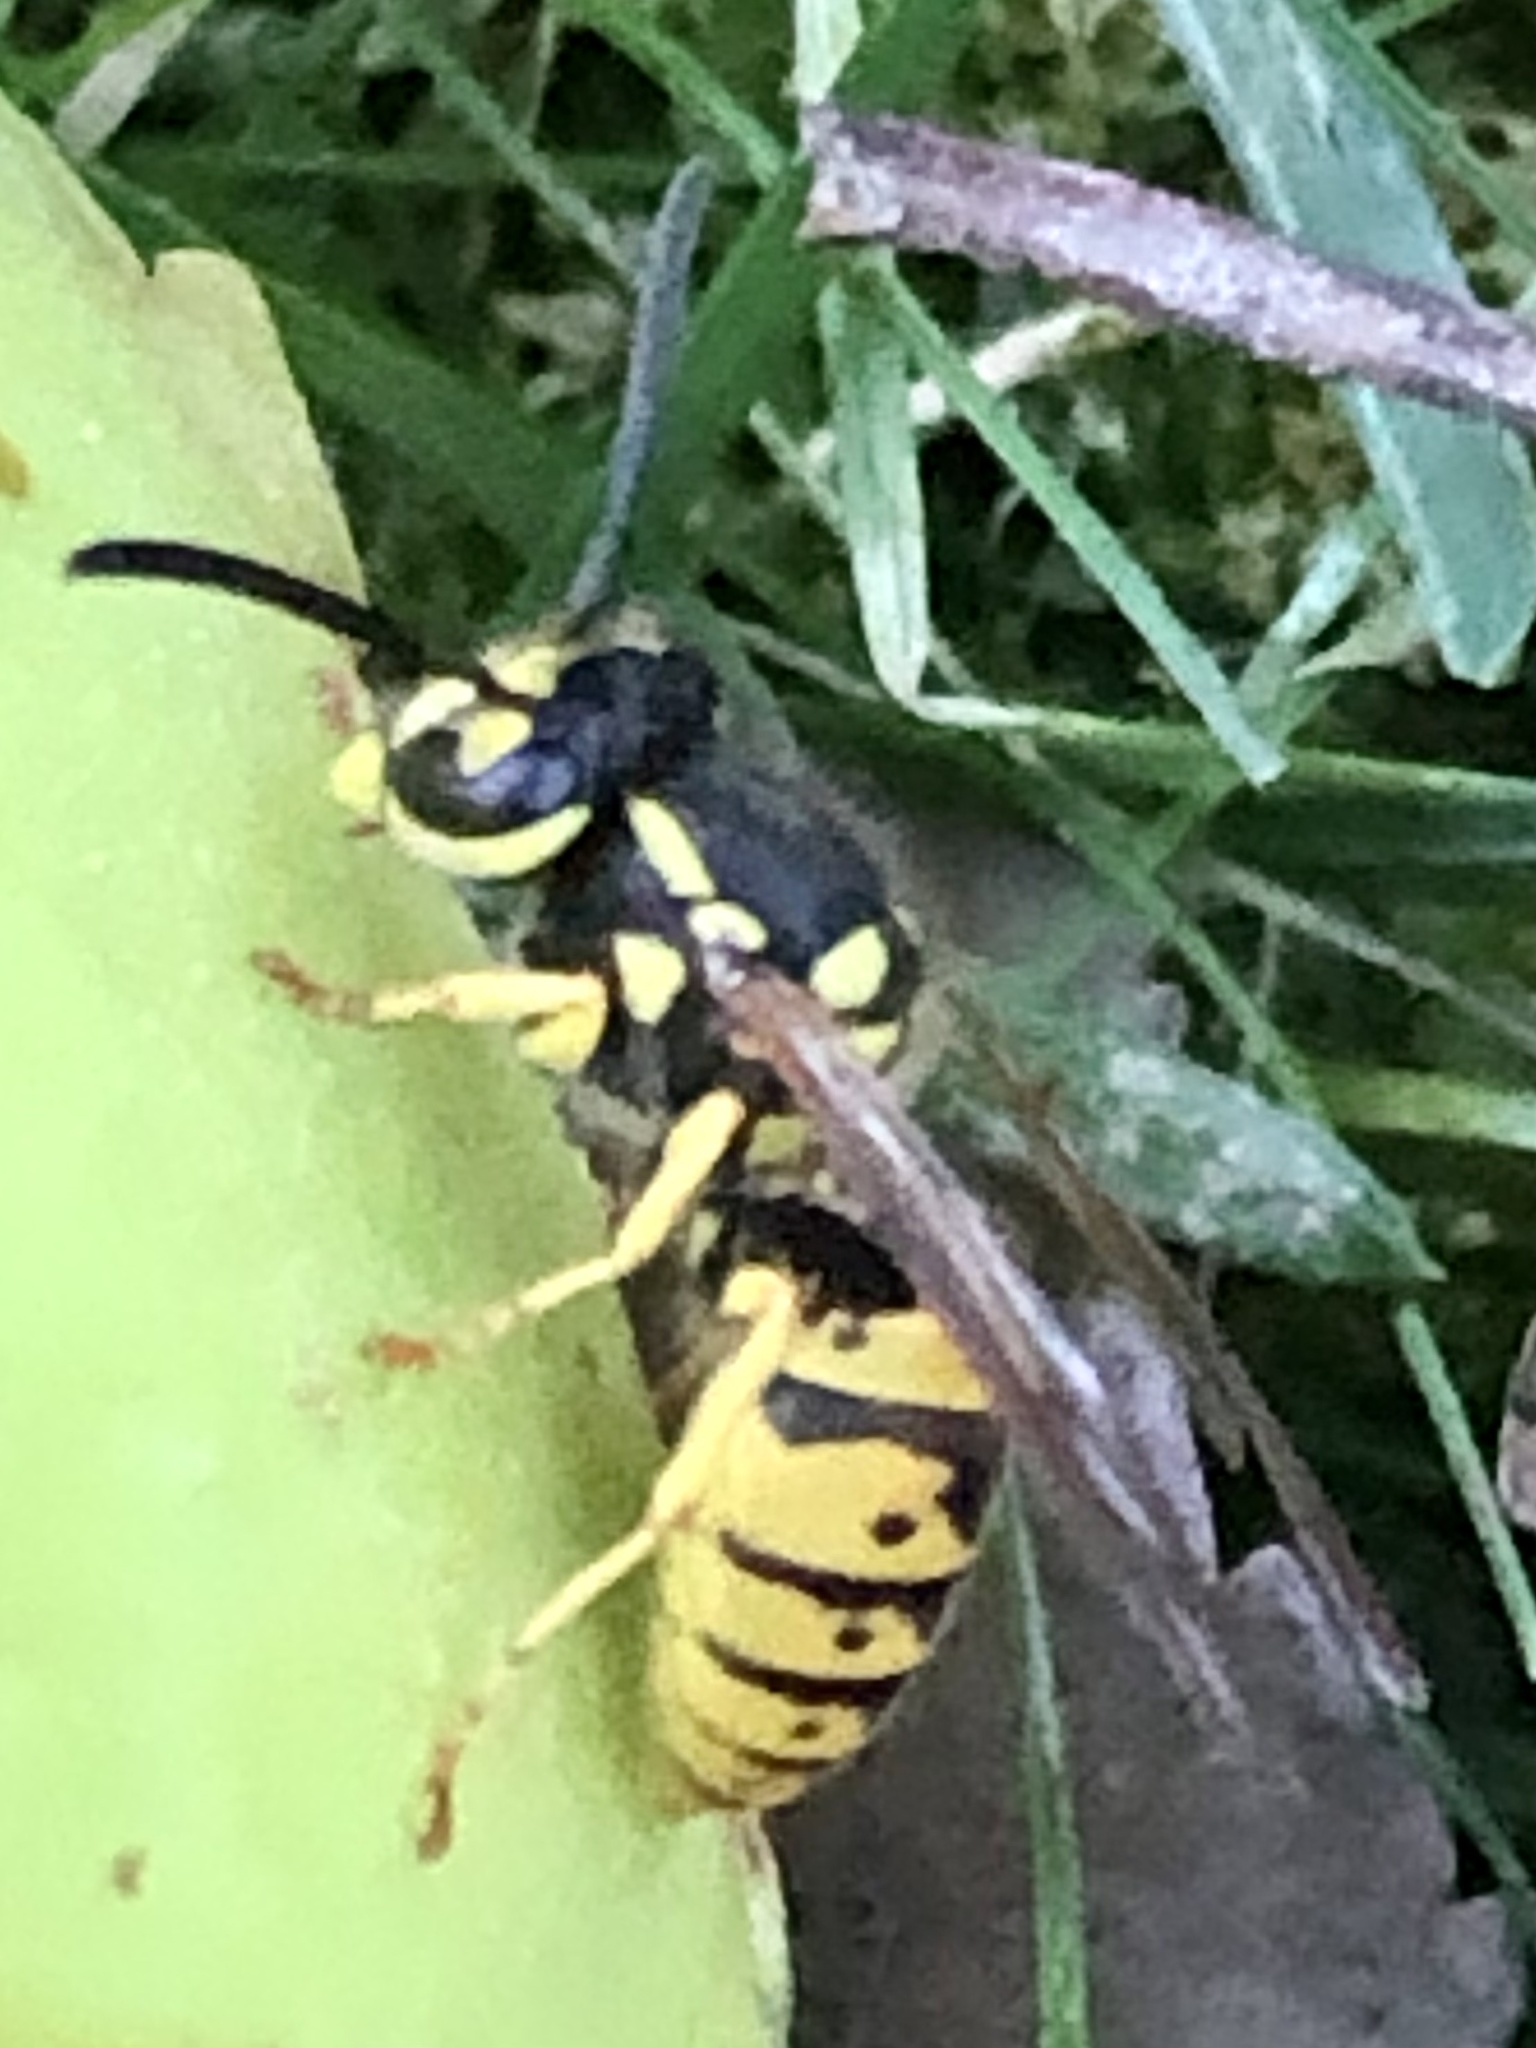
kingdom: Animalia
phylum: Arthropoda
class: Insecta
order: Hymenoptera
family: Vespidae
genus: Vespula
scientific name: Vespula germanica
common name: German wasp
